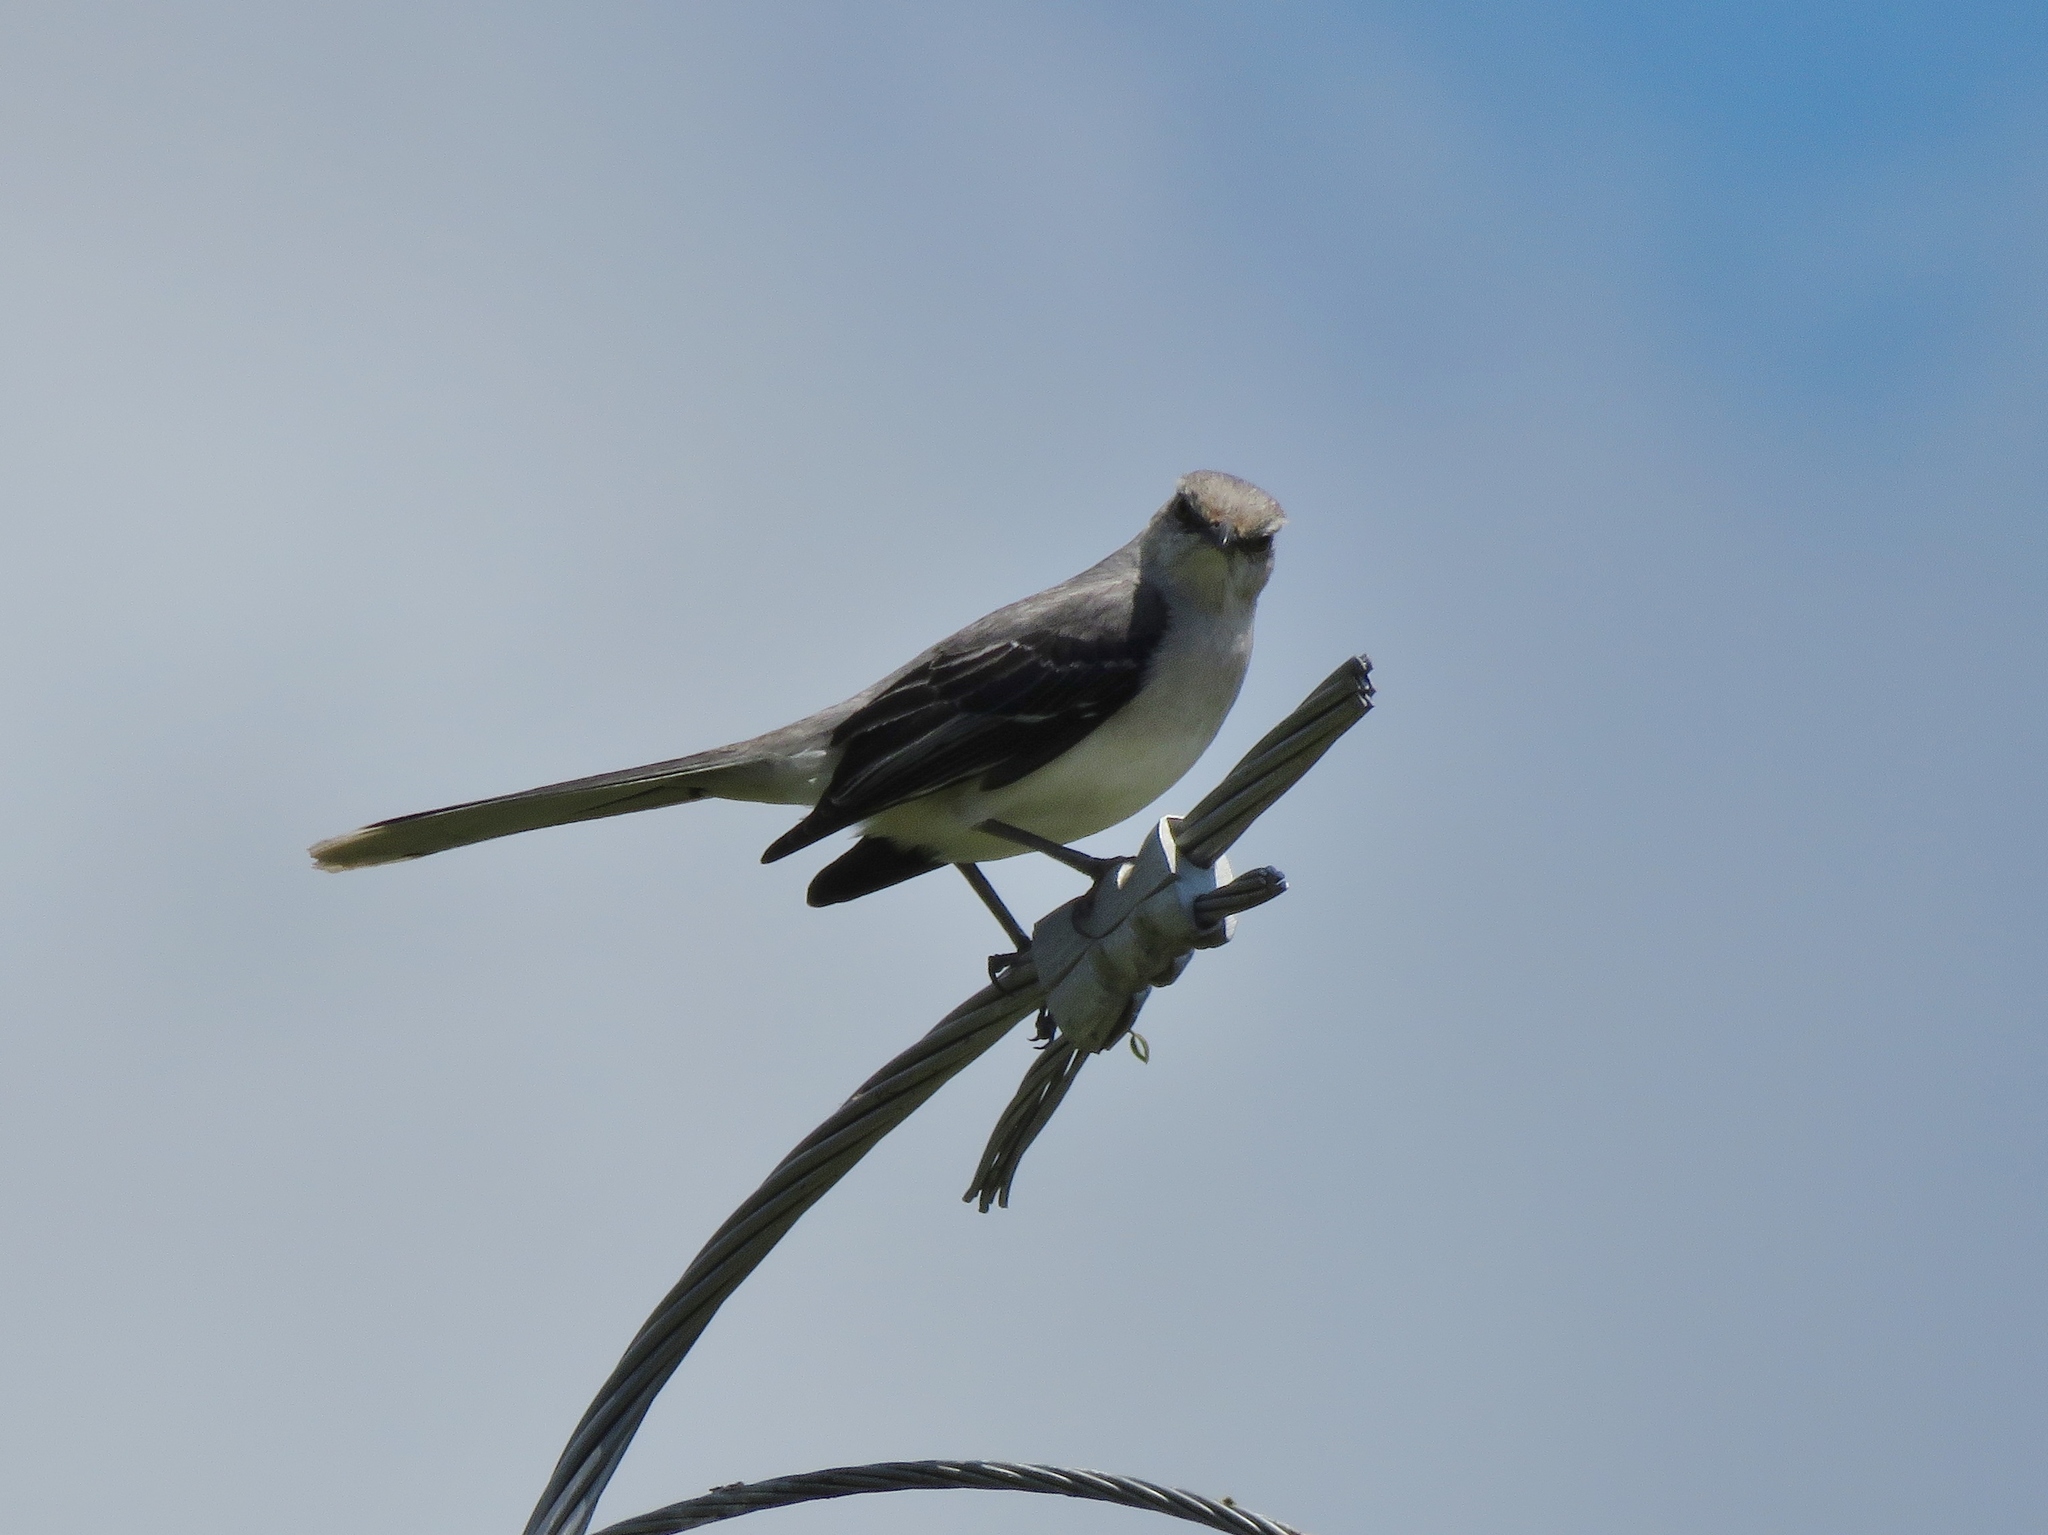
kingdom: Animalia
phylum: Chordata
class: Aves
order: Passeriformes
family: Mimidae
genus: Mimus
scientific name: Mimus gilvus
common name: Tropical mockingbird
